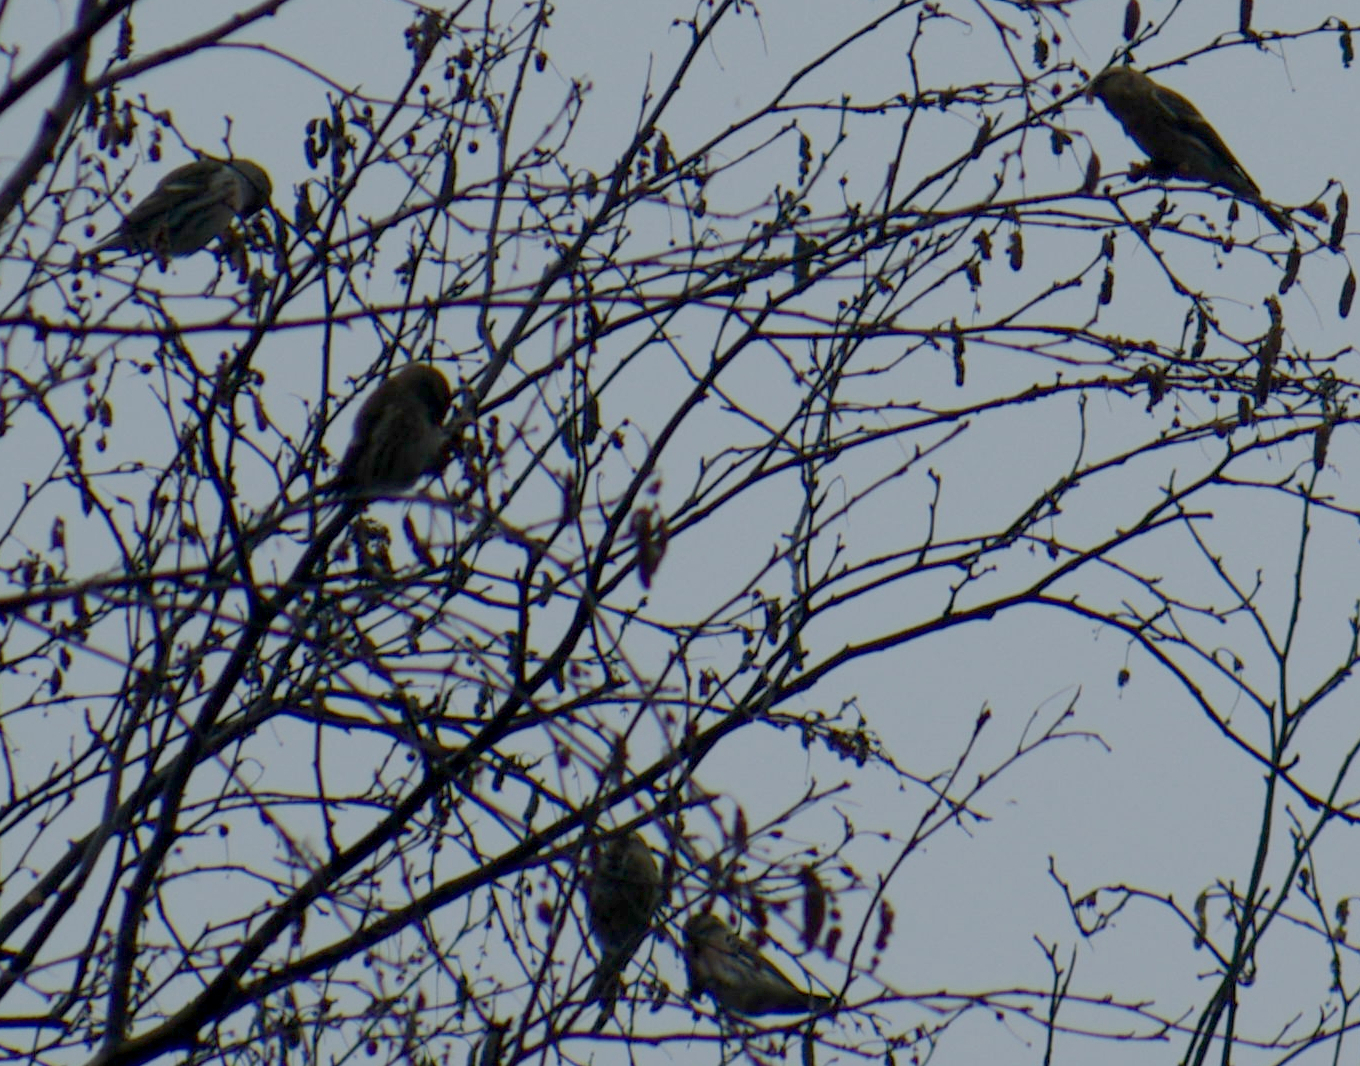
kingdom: Animalia
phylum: Chordata
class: Aves
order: Passeriformes
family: Fringillidae
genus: Acanthis
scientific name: Acanthis flammea
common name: Common redpoll
